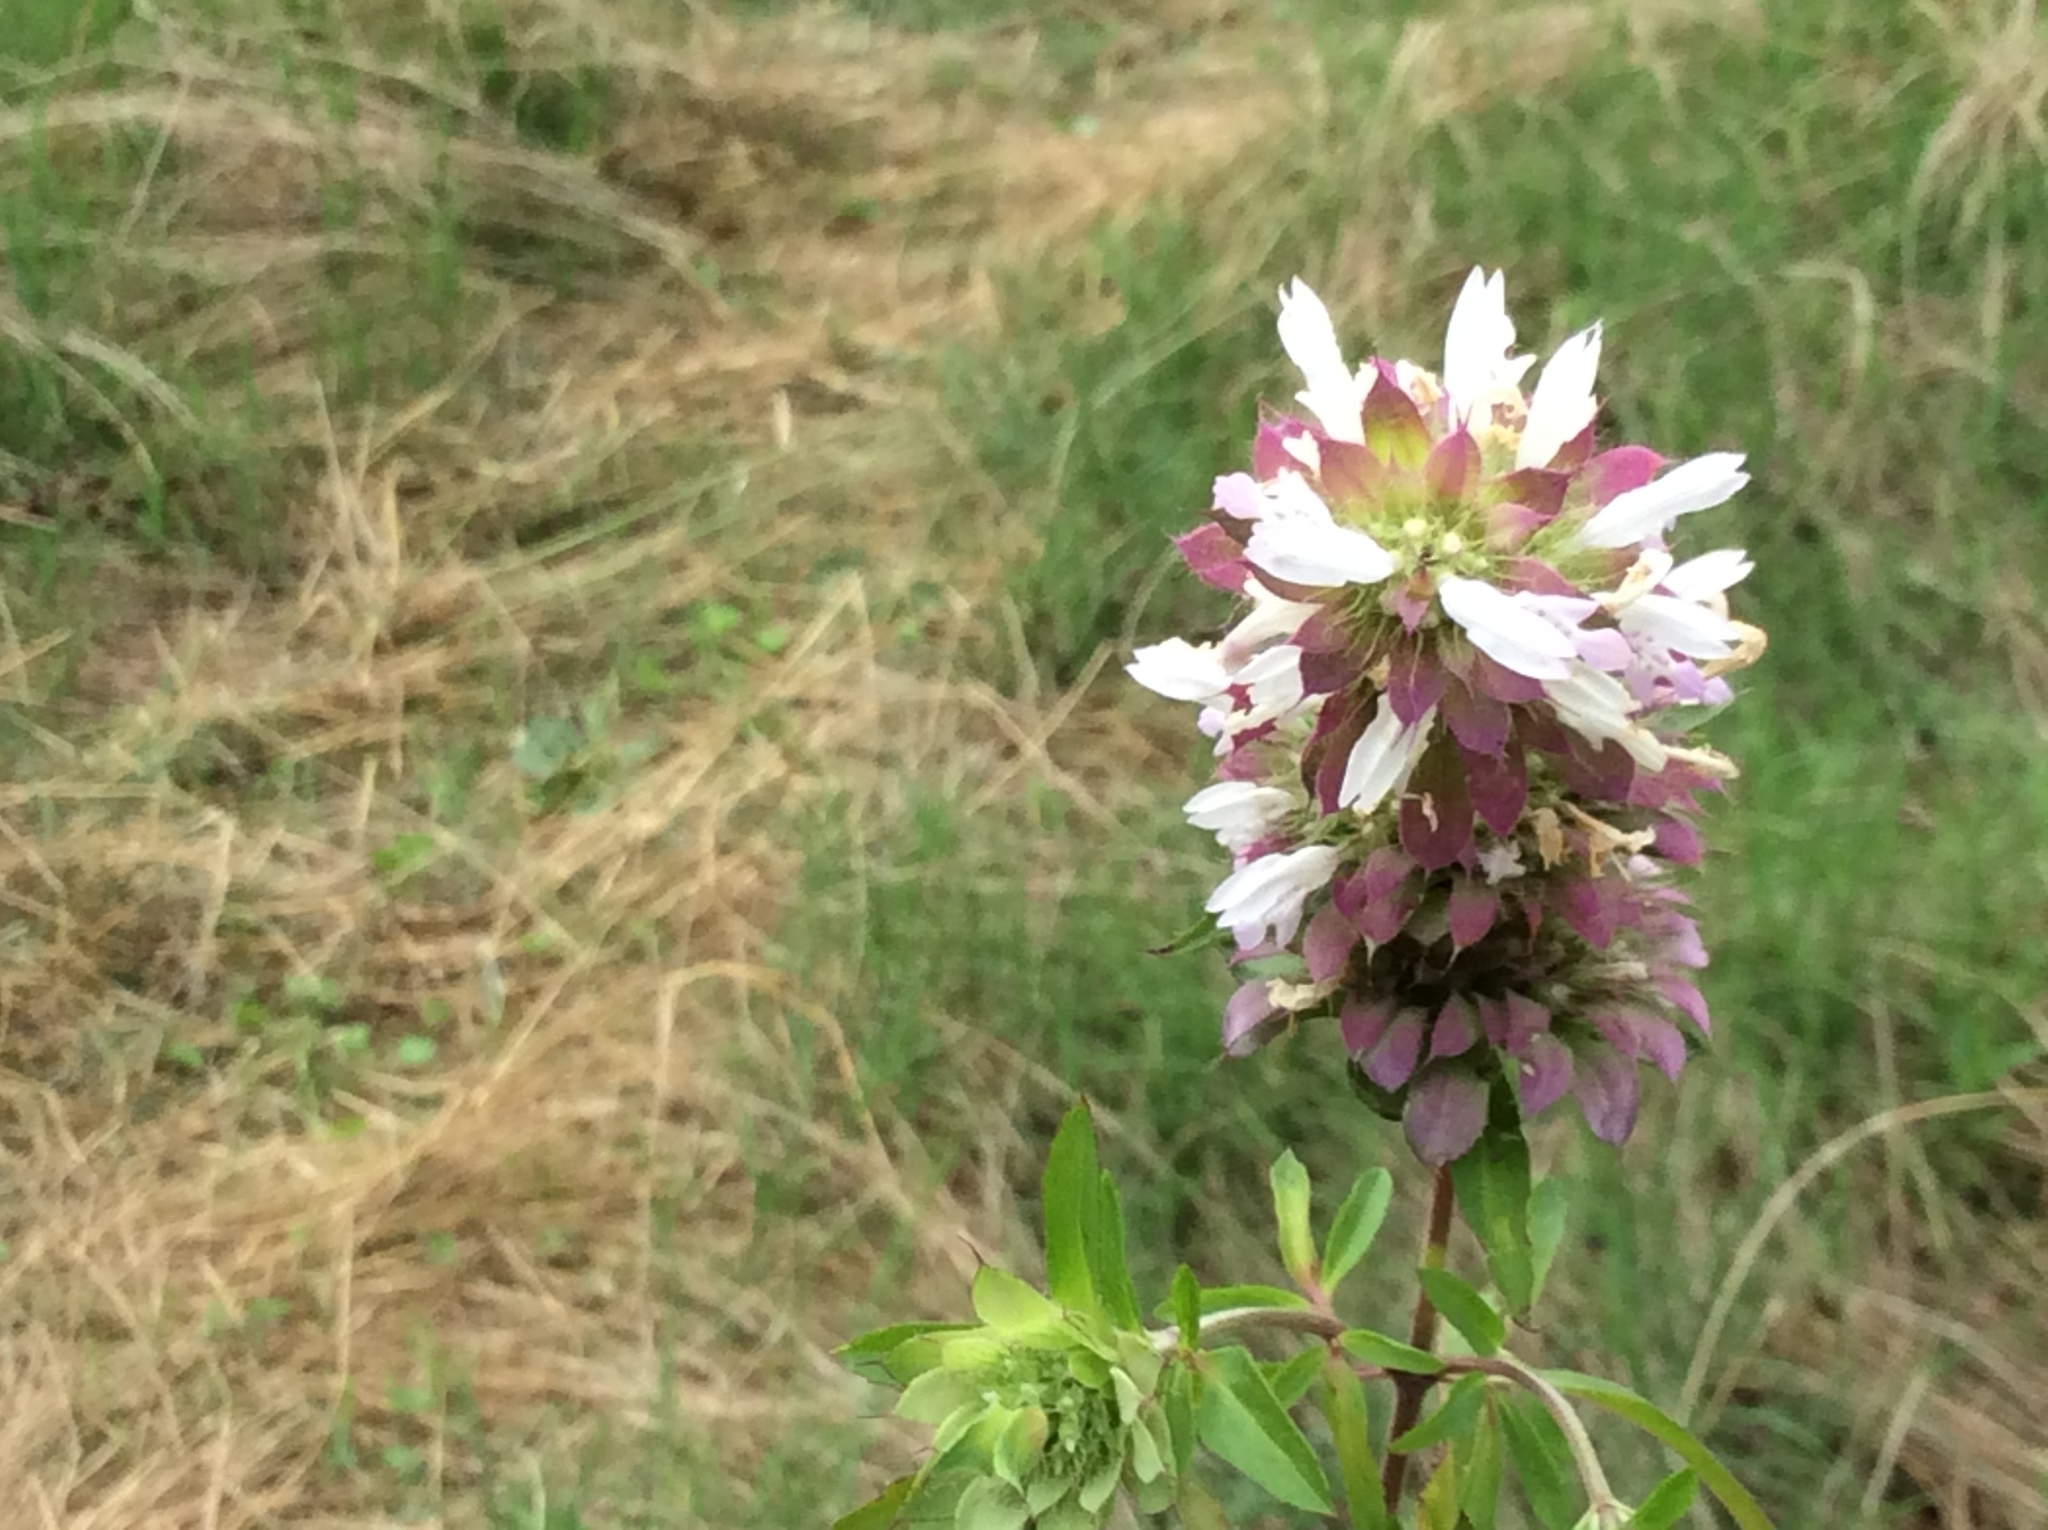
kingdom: Plantae
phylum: Tracheophyta
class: Magnoliopsida
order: Lamiales
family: Lamiaceae
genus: Monarda
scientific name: Monarda citriodora
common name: Lemon beebalm
